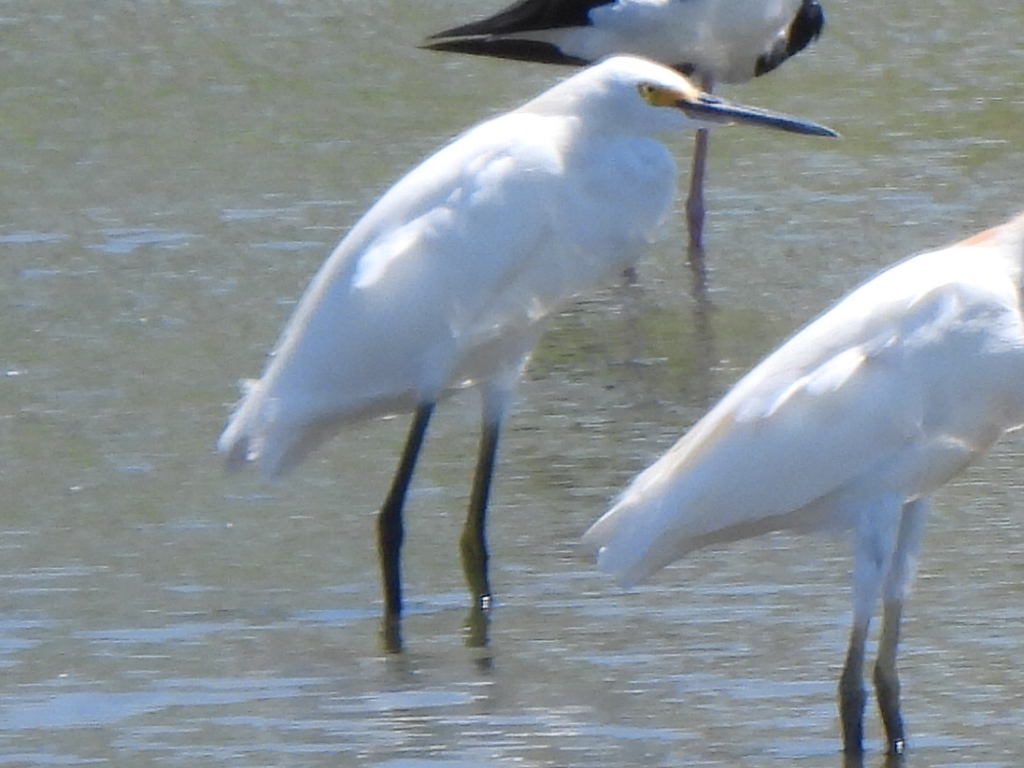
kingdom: Animalia
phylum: Chordata
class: Aves
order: Pelecaniformes
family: Ardeidae
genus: Egretta
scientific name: Egretta thula
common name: Snowy egret
